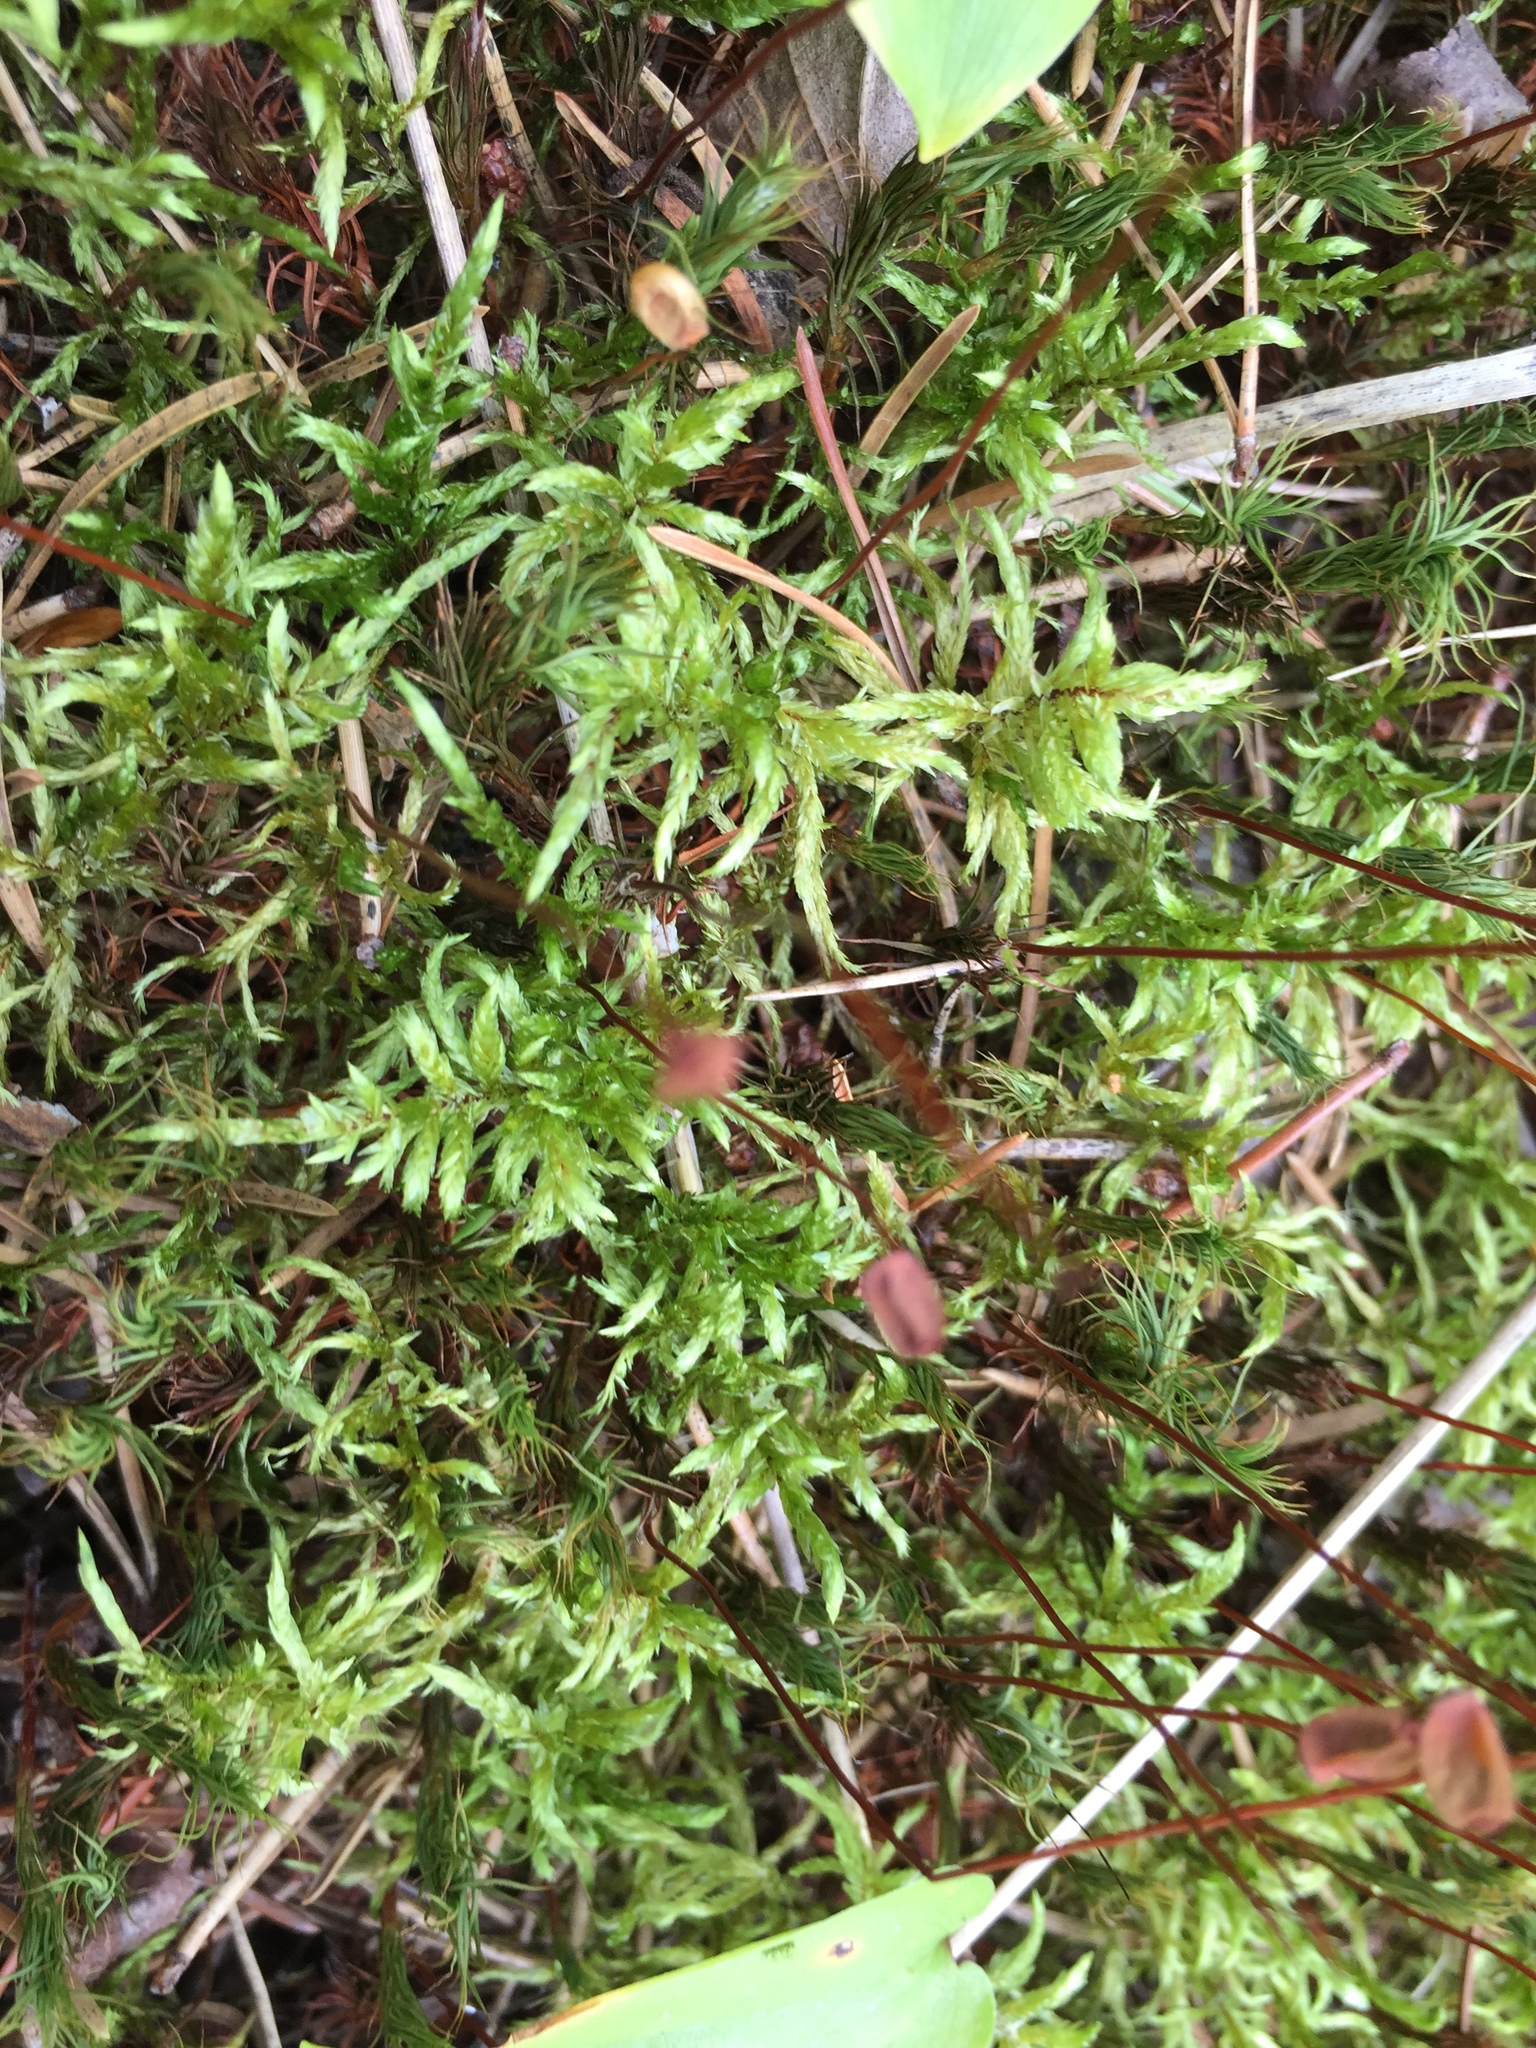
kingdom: Plantae
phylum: Bryophyta
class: Bryopsida
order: Hypnales
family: Hylocomiaceae
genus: Pleurozium
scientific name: Pleurozium schreberi
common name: Red-stemmed feather moss
